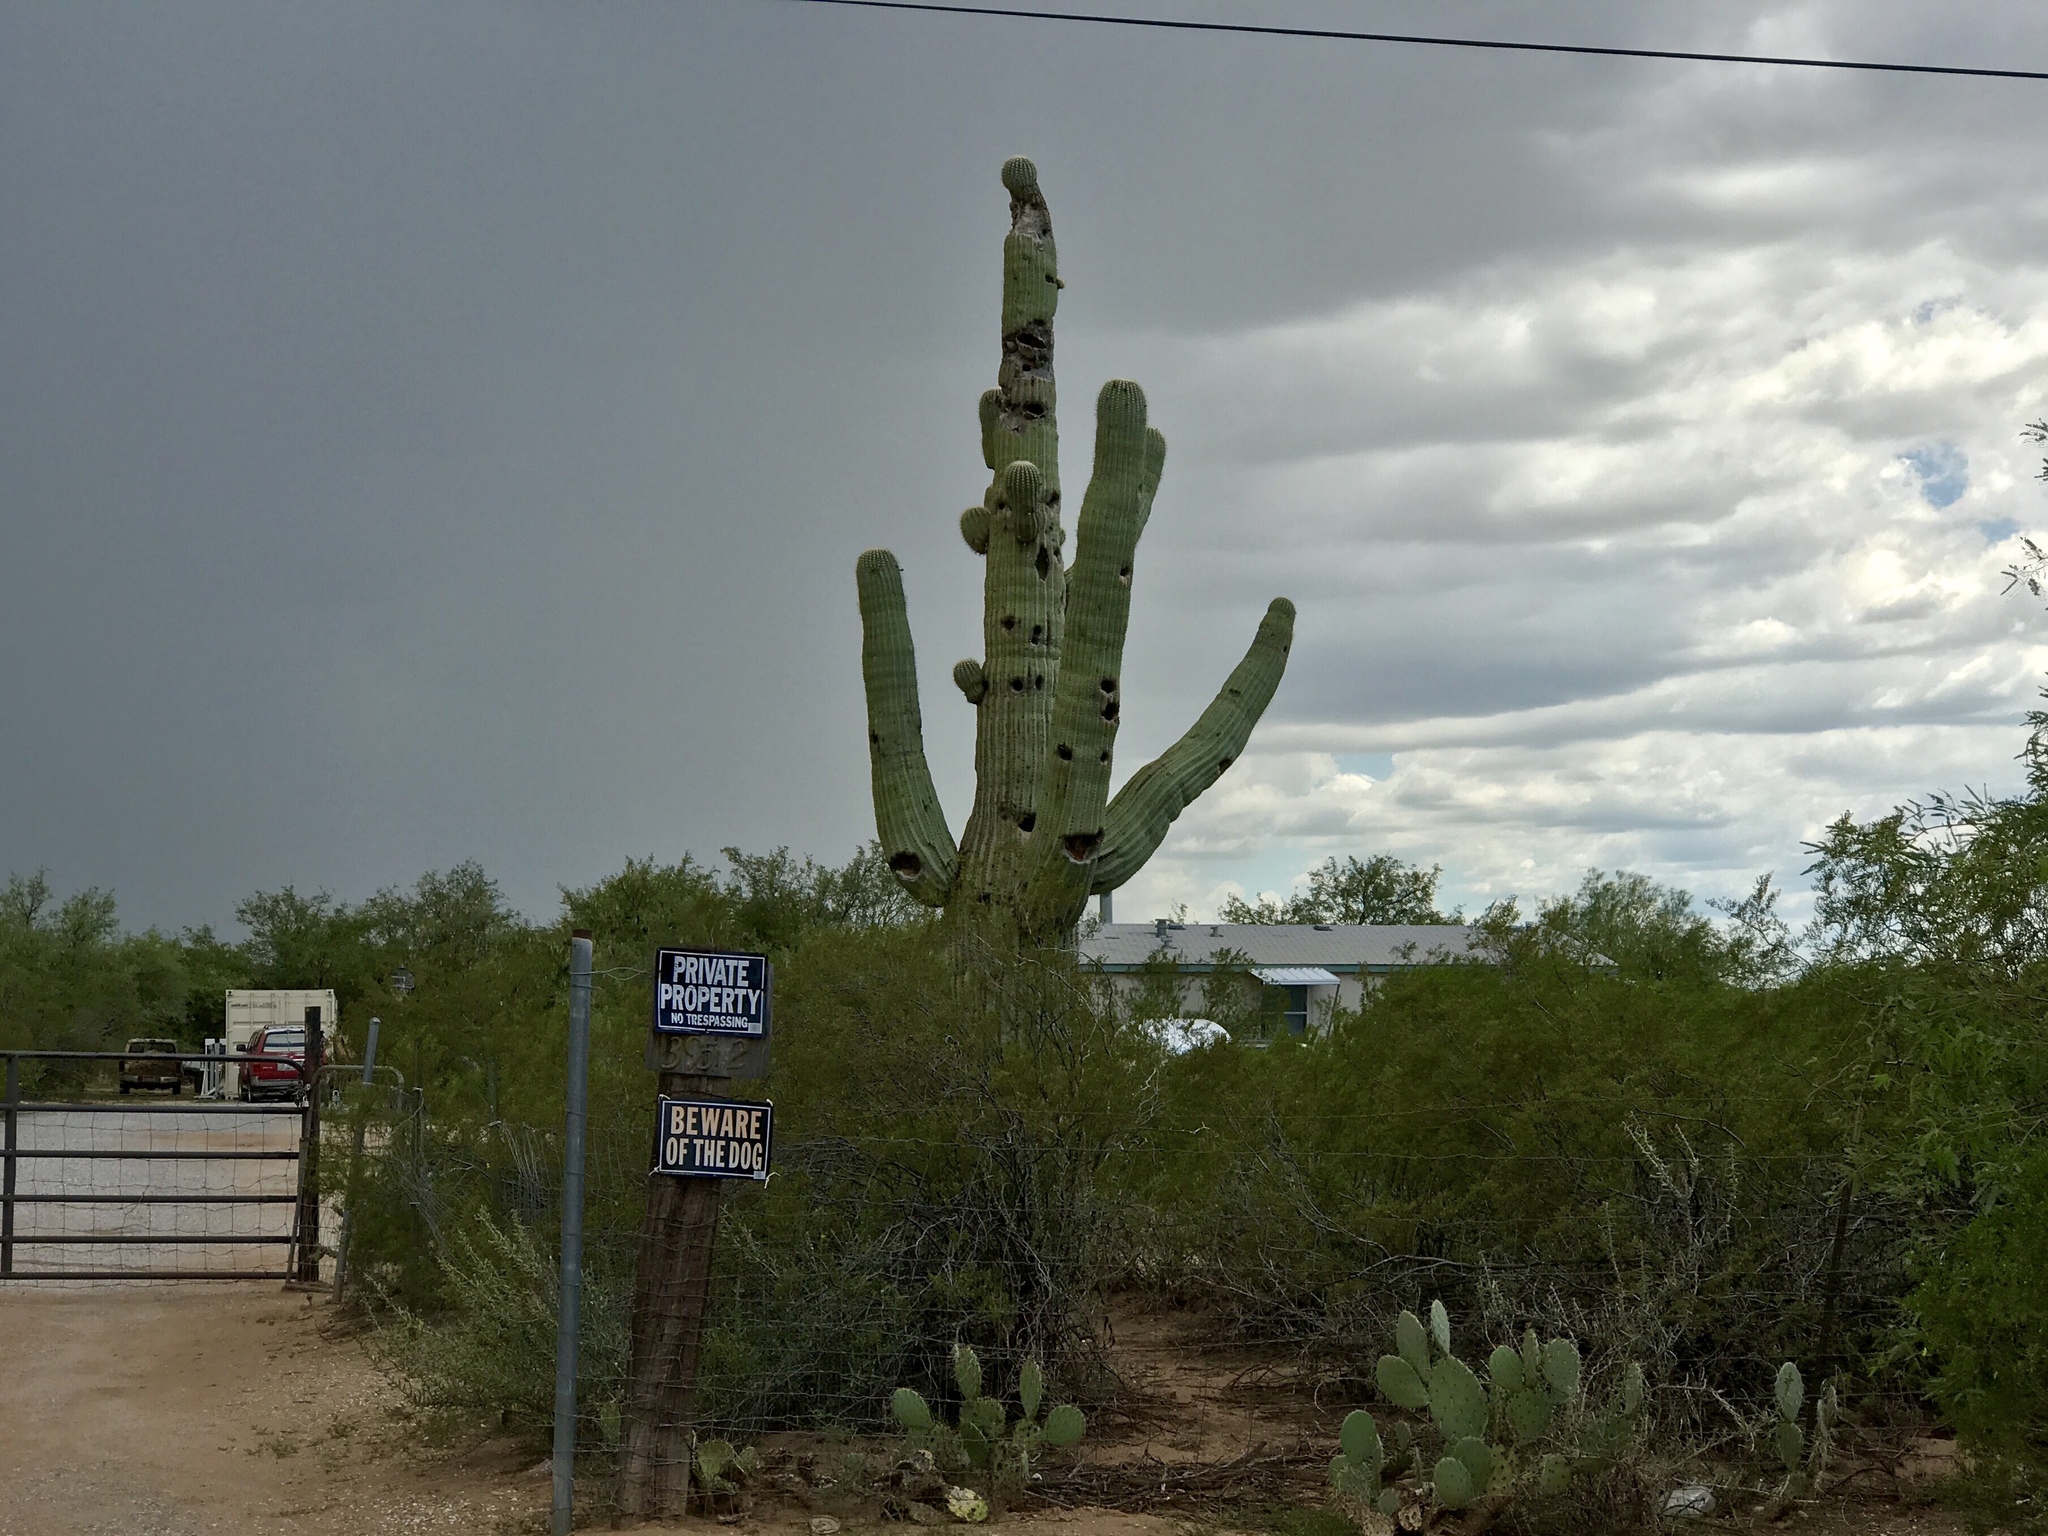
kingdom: Plantae
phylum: Tracheophyta
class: Magnoliopsida
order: Caryophyllales
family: Cactaceae
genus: Carnegiea
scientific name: Carnegiea gigantea
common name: Saguaro
